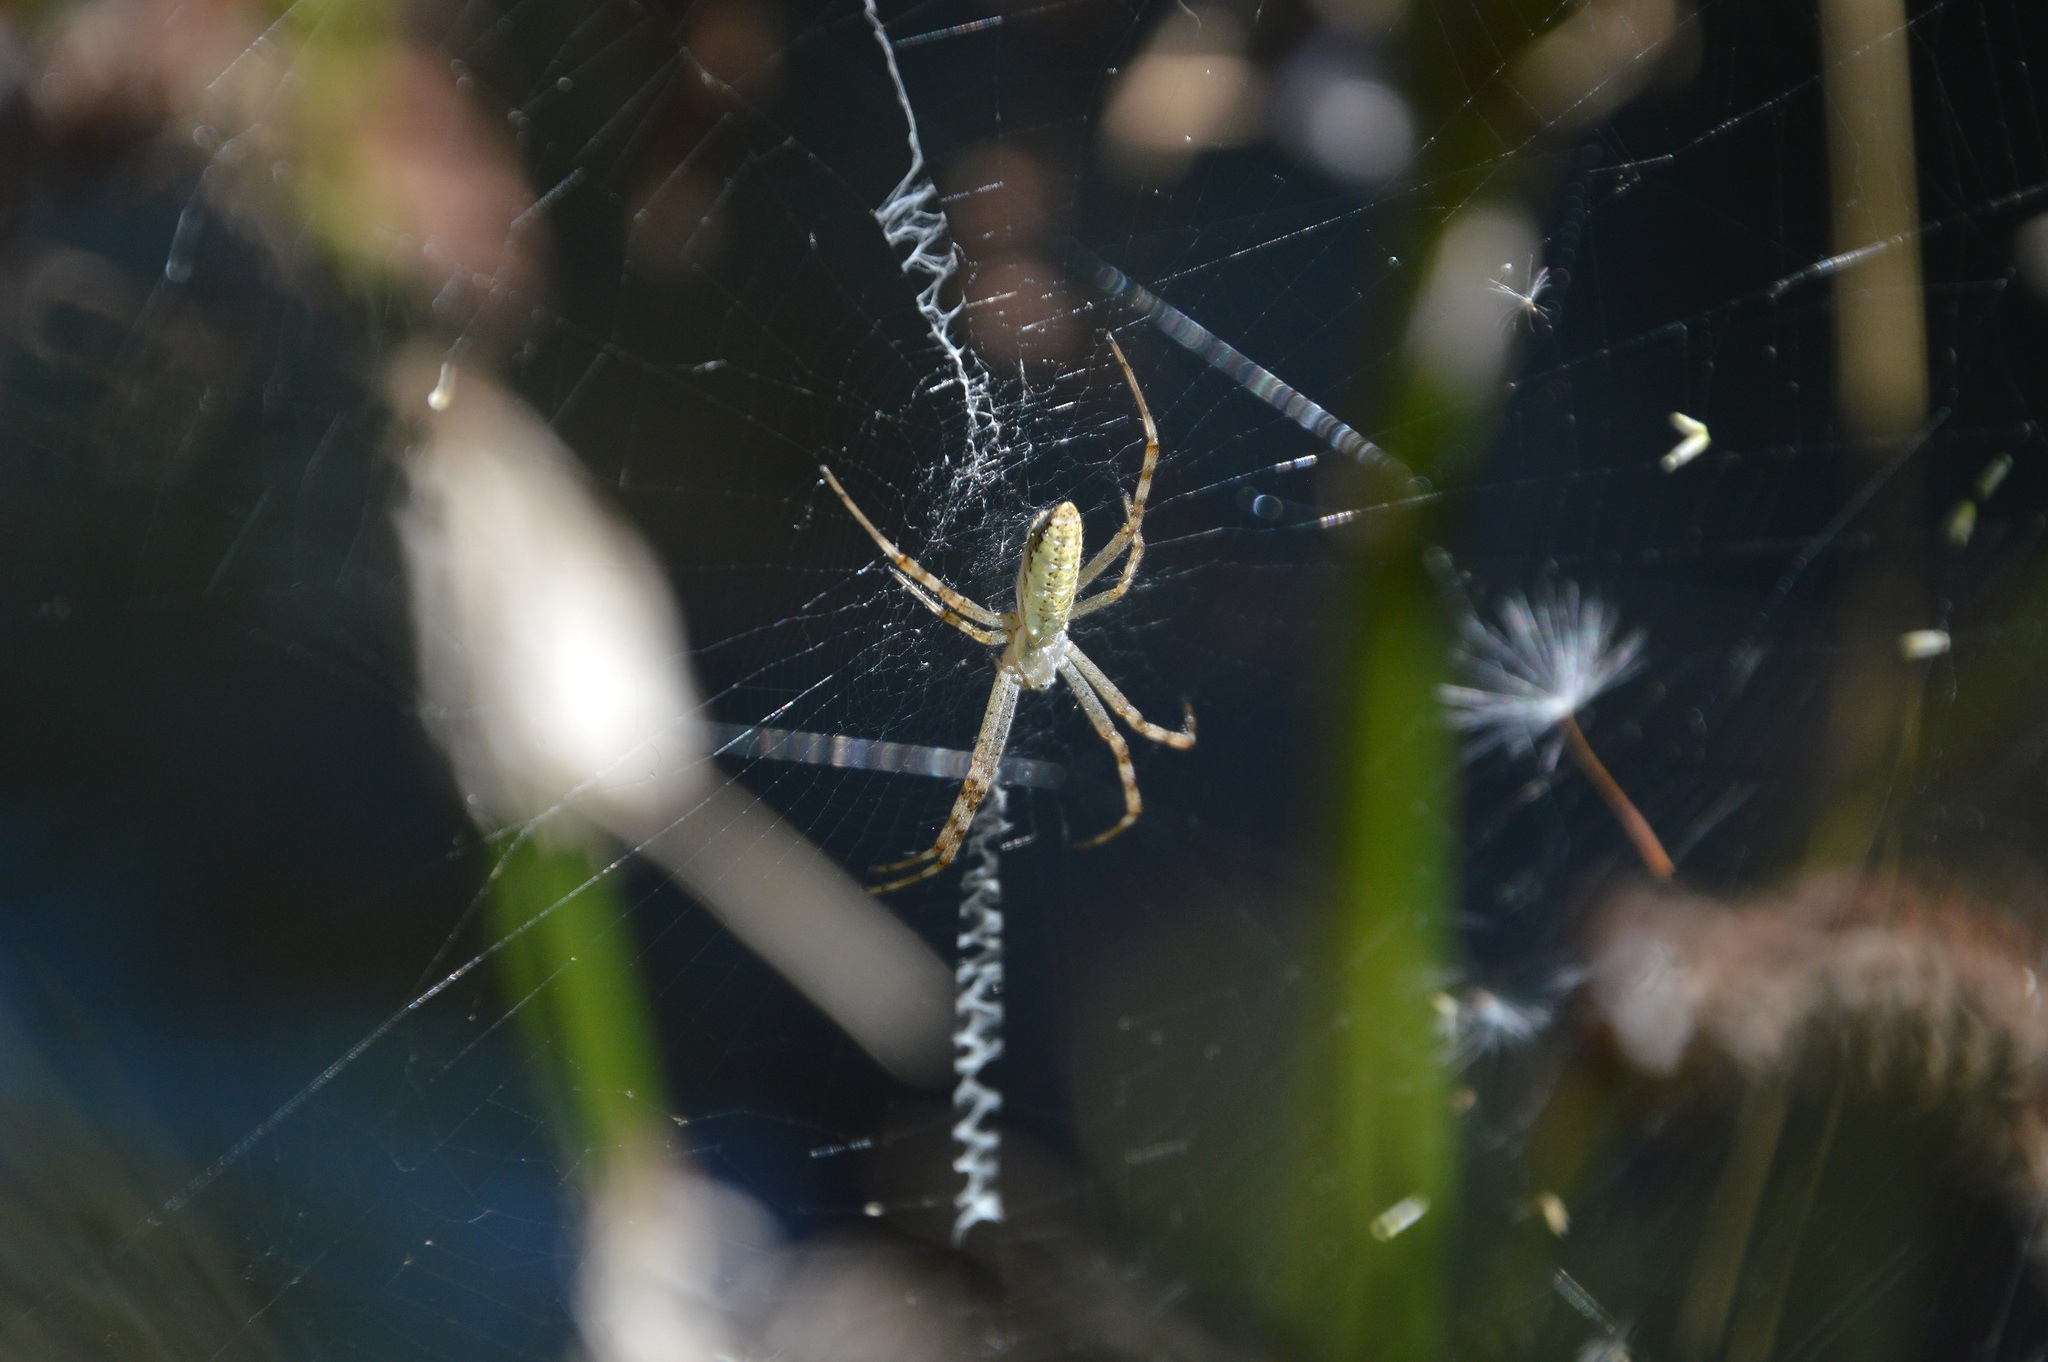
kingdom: Animalia
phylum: Arthropoda
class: Arachnida
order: Araneae
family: Araneidae
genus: Argiope
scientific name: Argiope bruennichi
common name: Wasp spider
